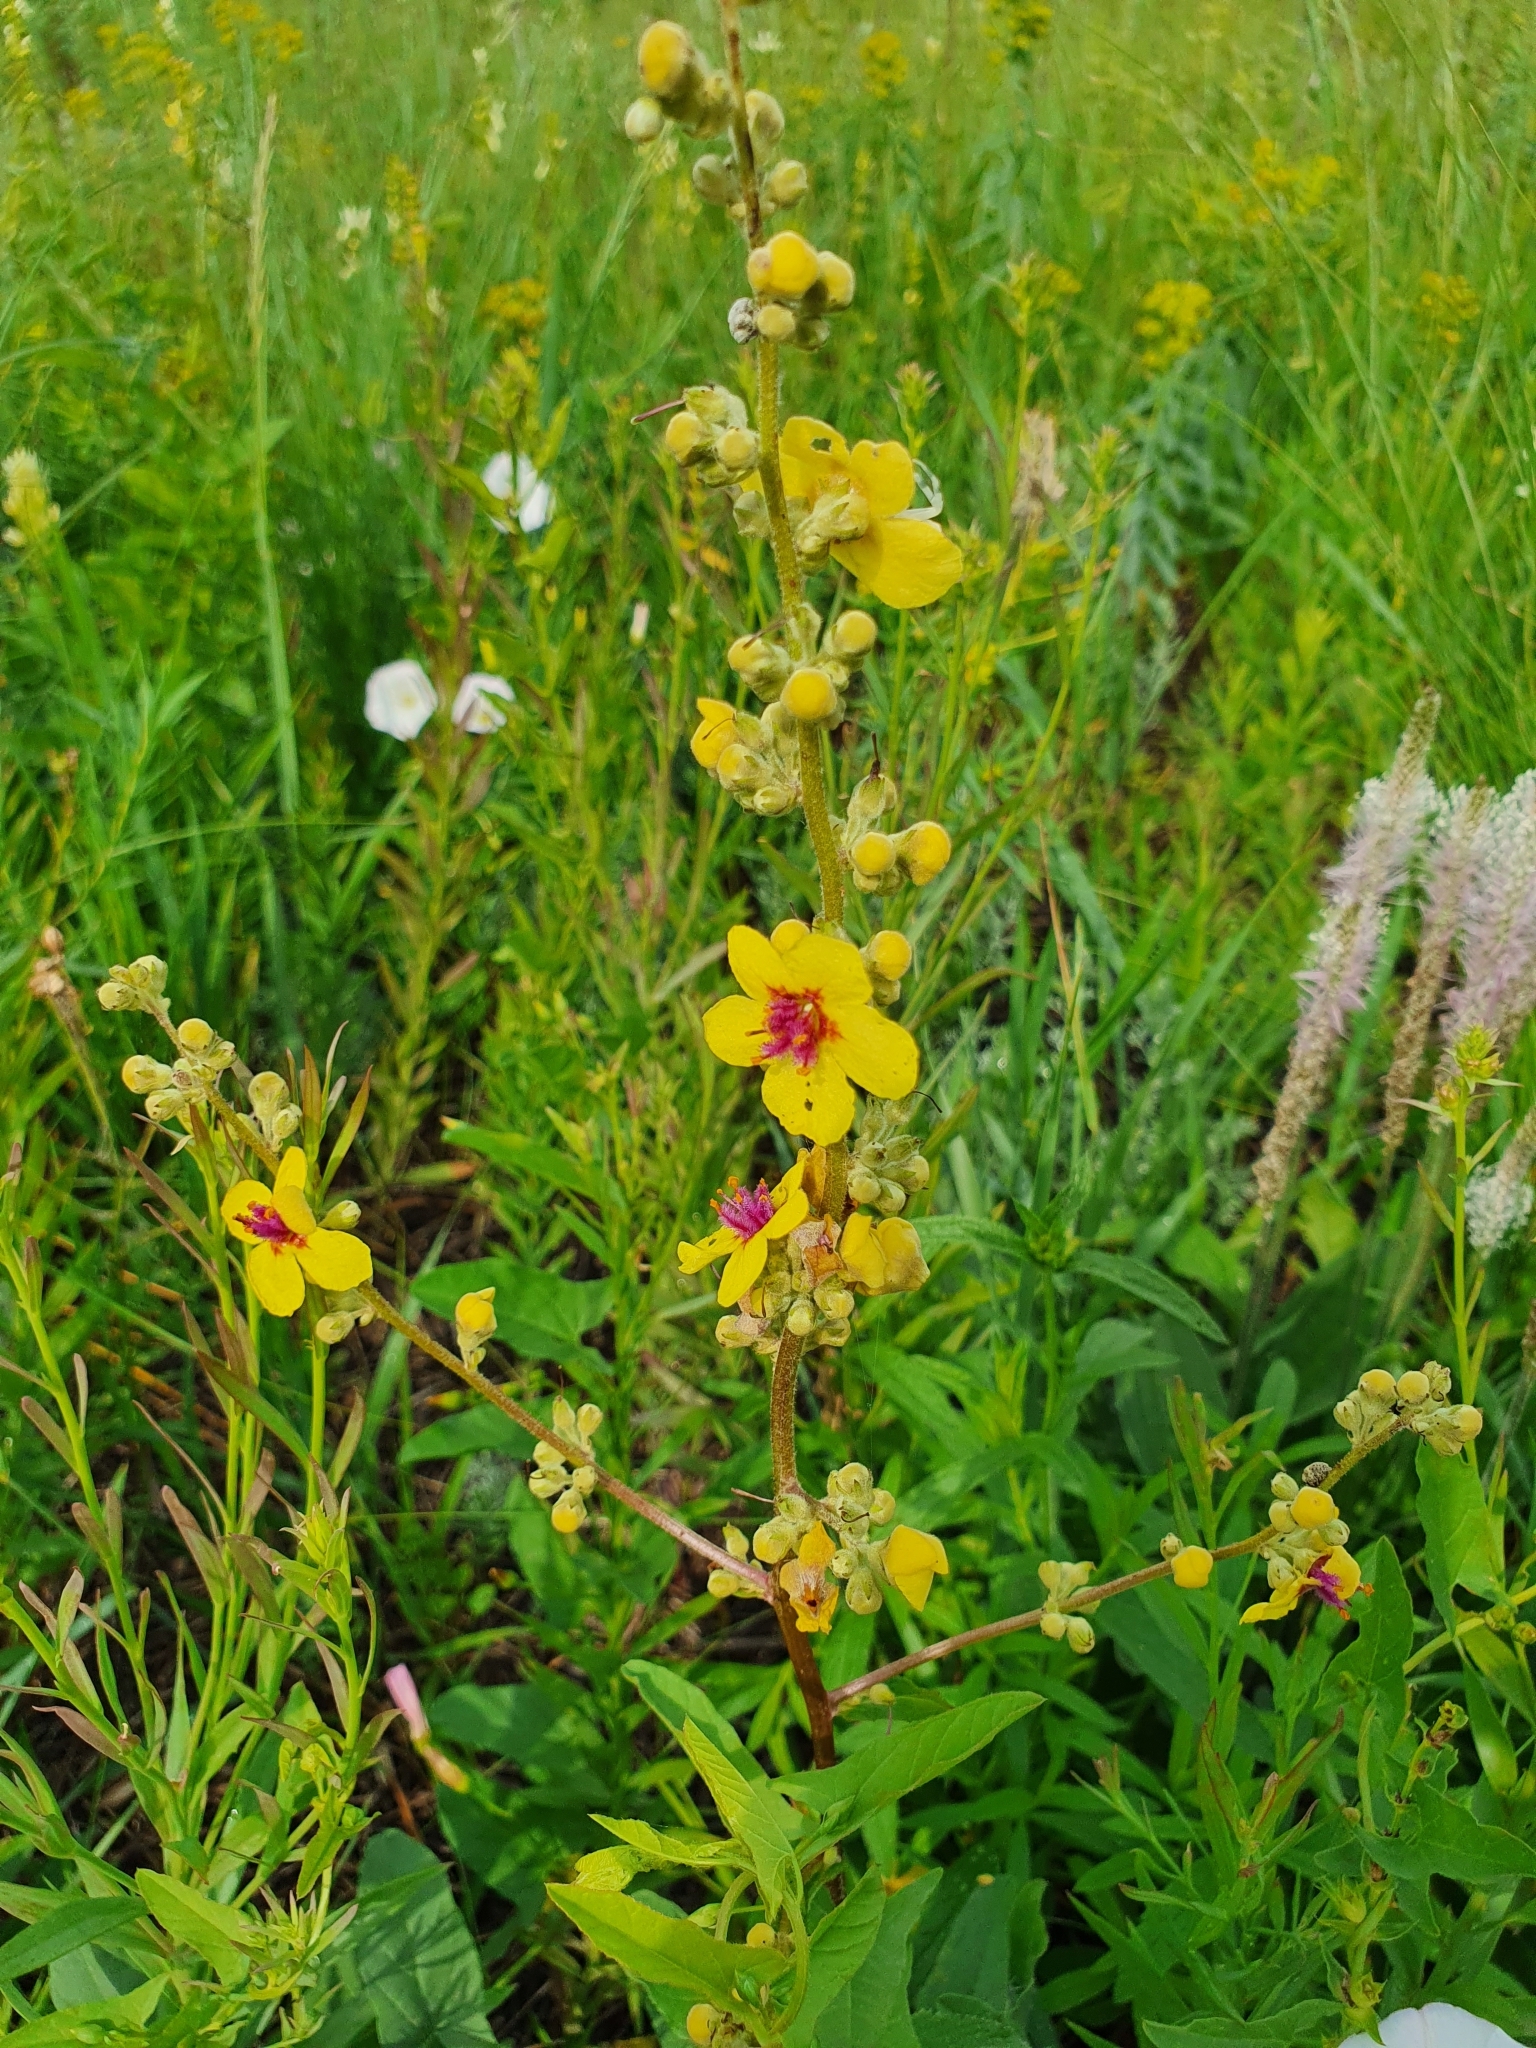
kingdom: Plantae
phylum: Tracheophyta
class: Magnoliopsida
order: Lamiales
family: Scrophulariaceae
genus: Verbascum
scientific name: Verbascum chaixii
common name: Nettle-leaved mullein
